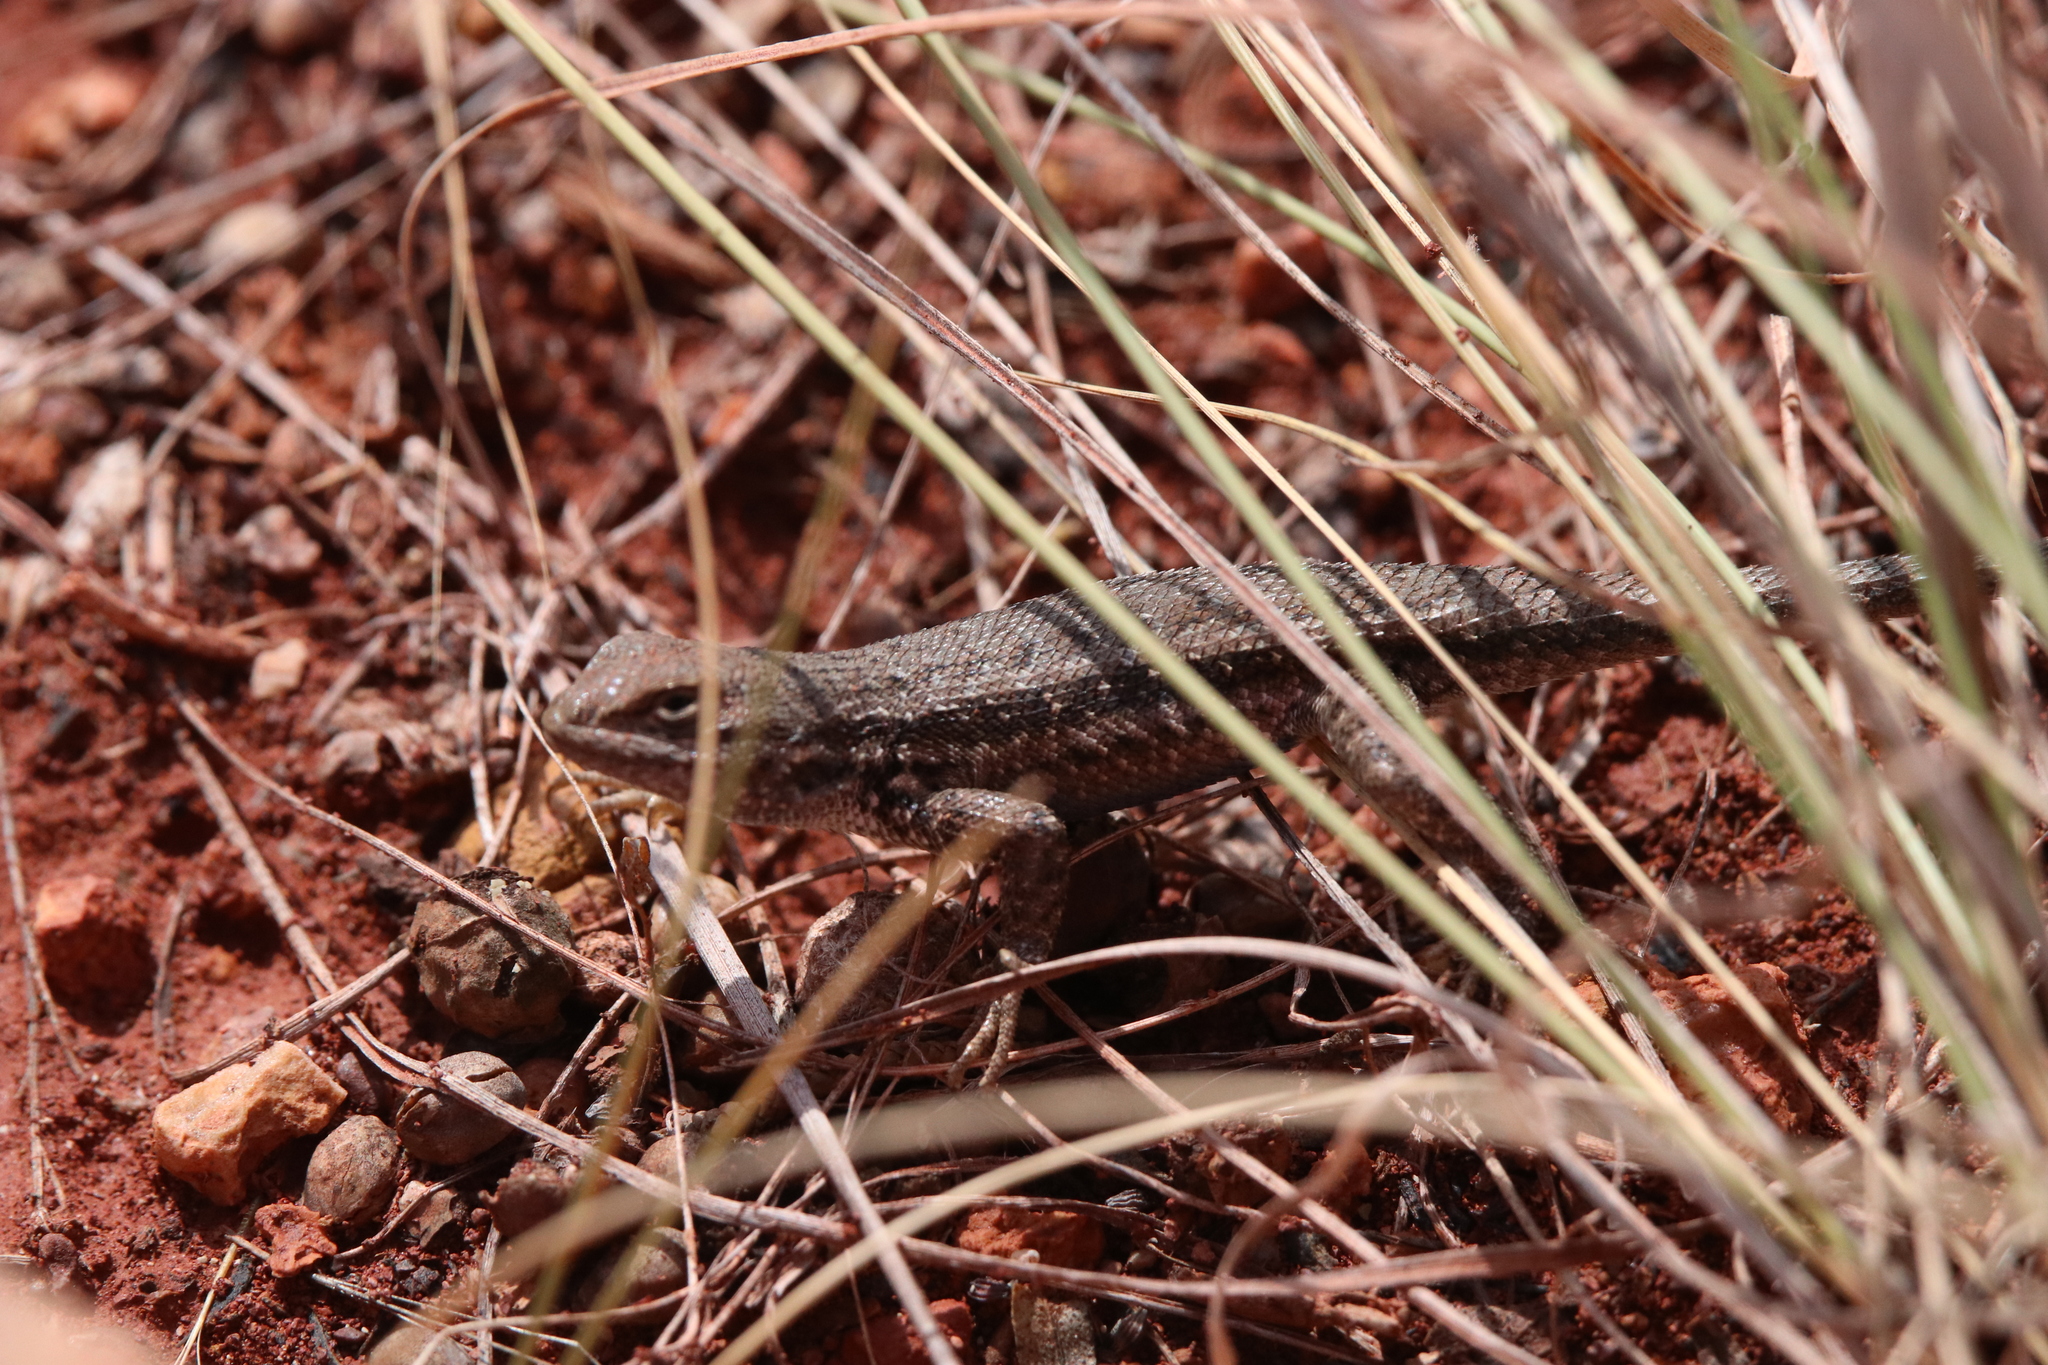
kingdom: Animalia
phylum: Chordata
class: Squamata
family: Phrynosomatidae
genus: Sceloporus
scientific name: Sceloporus graciosus
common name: Sagebrush lizard
